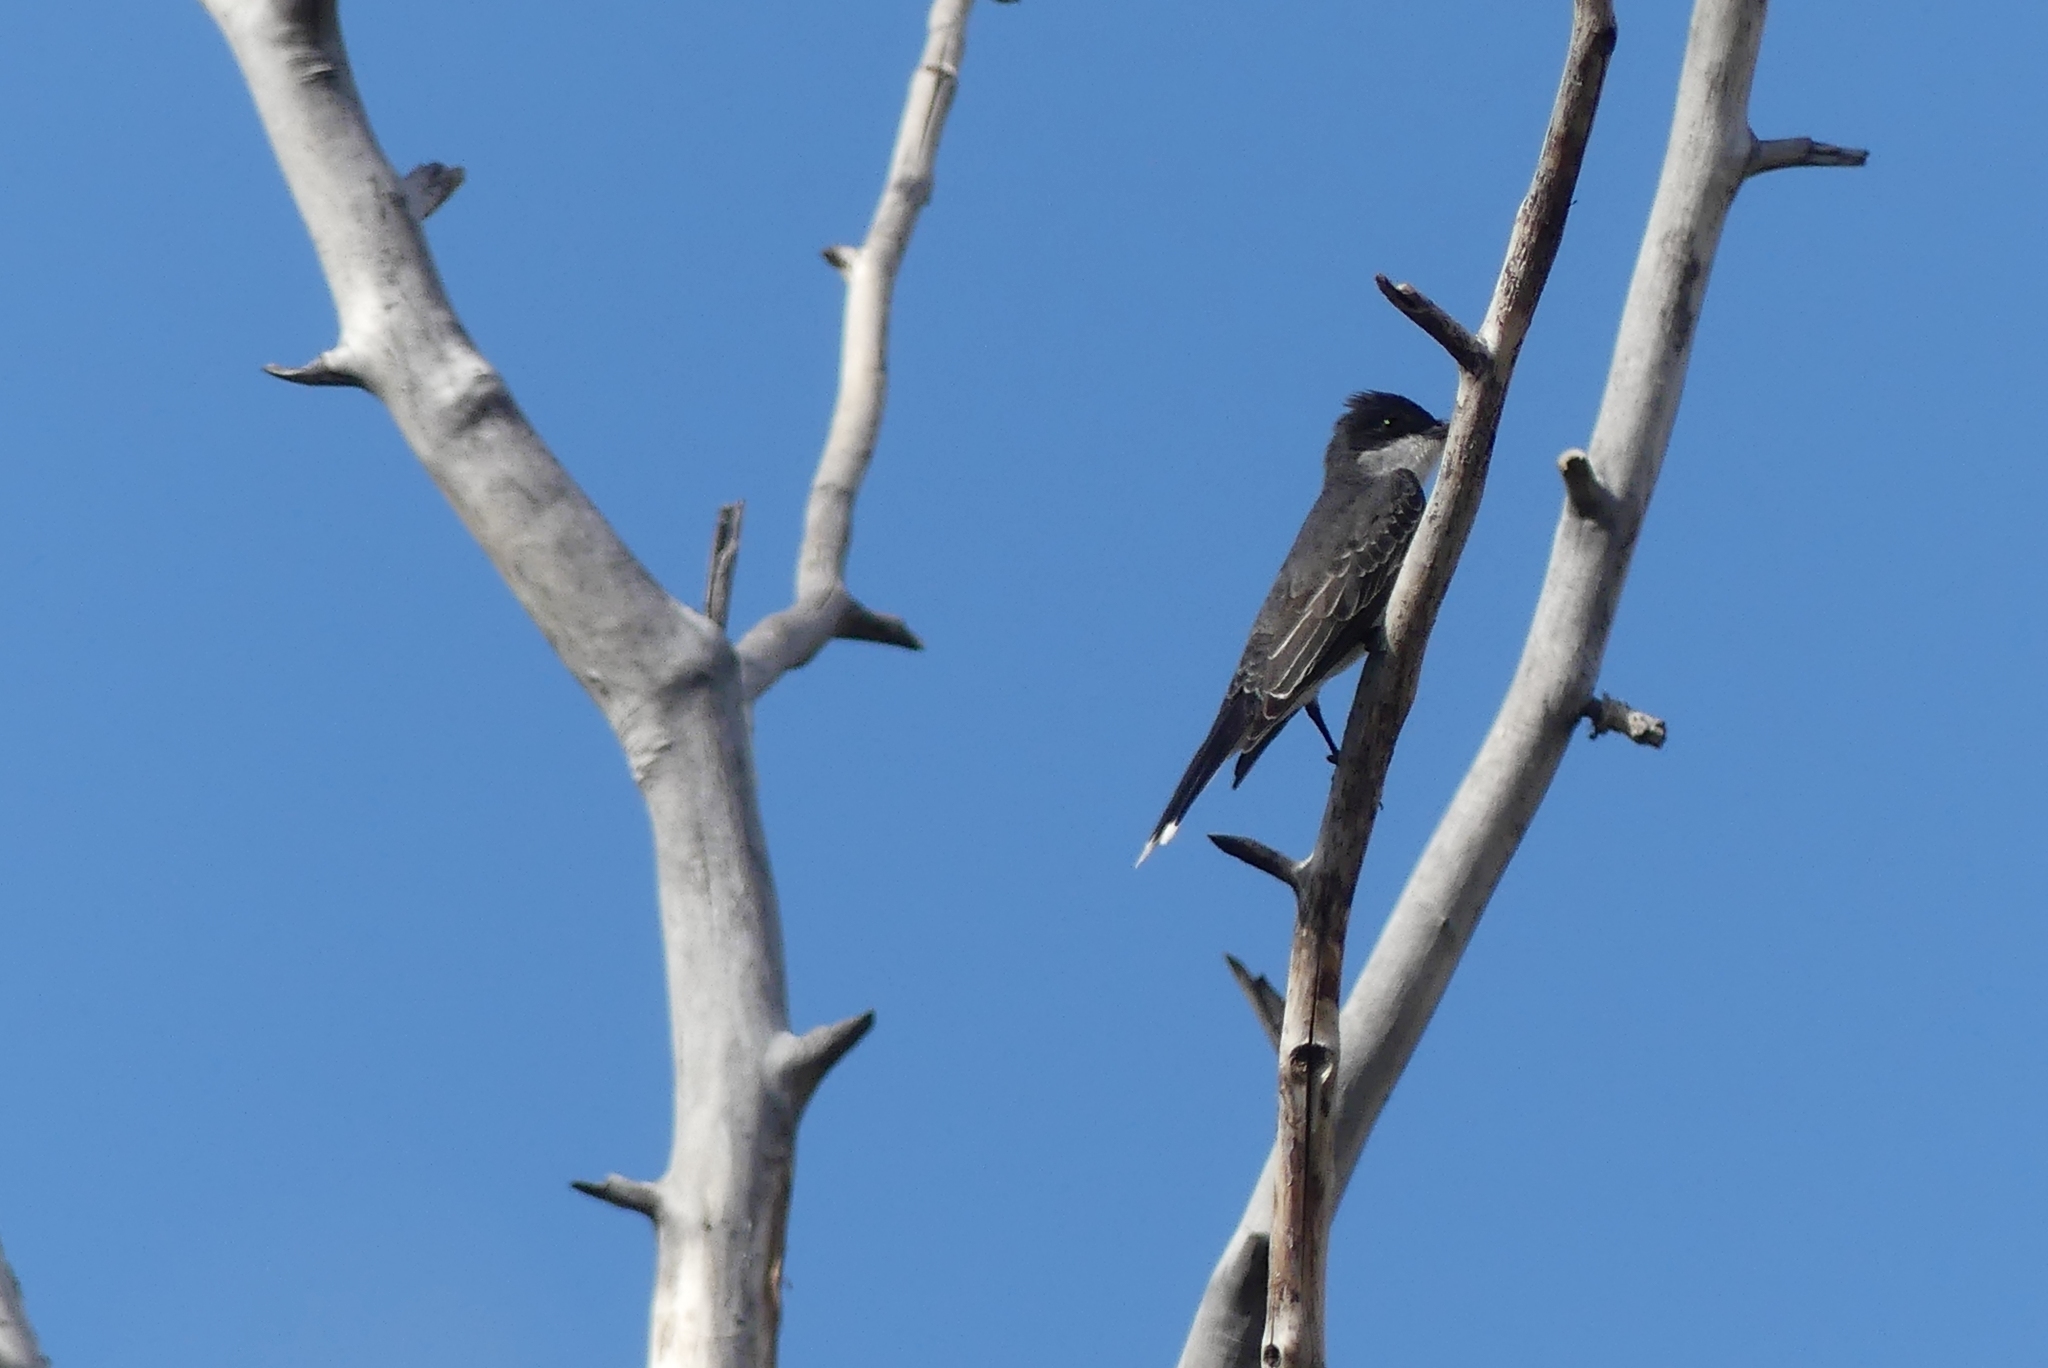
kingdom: Animalia
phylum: Chordata
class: Aves
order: Passeriformes
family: Tyrannidae
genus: Tyrannus
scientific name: Tyrannus tyrannus
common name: Eastern kingbird
